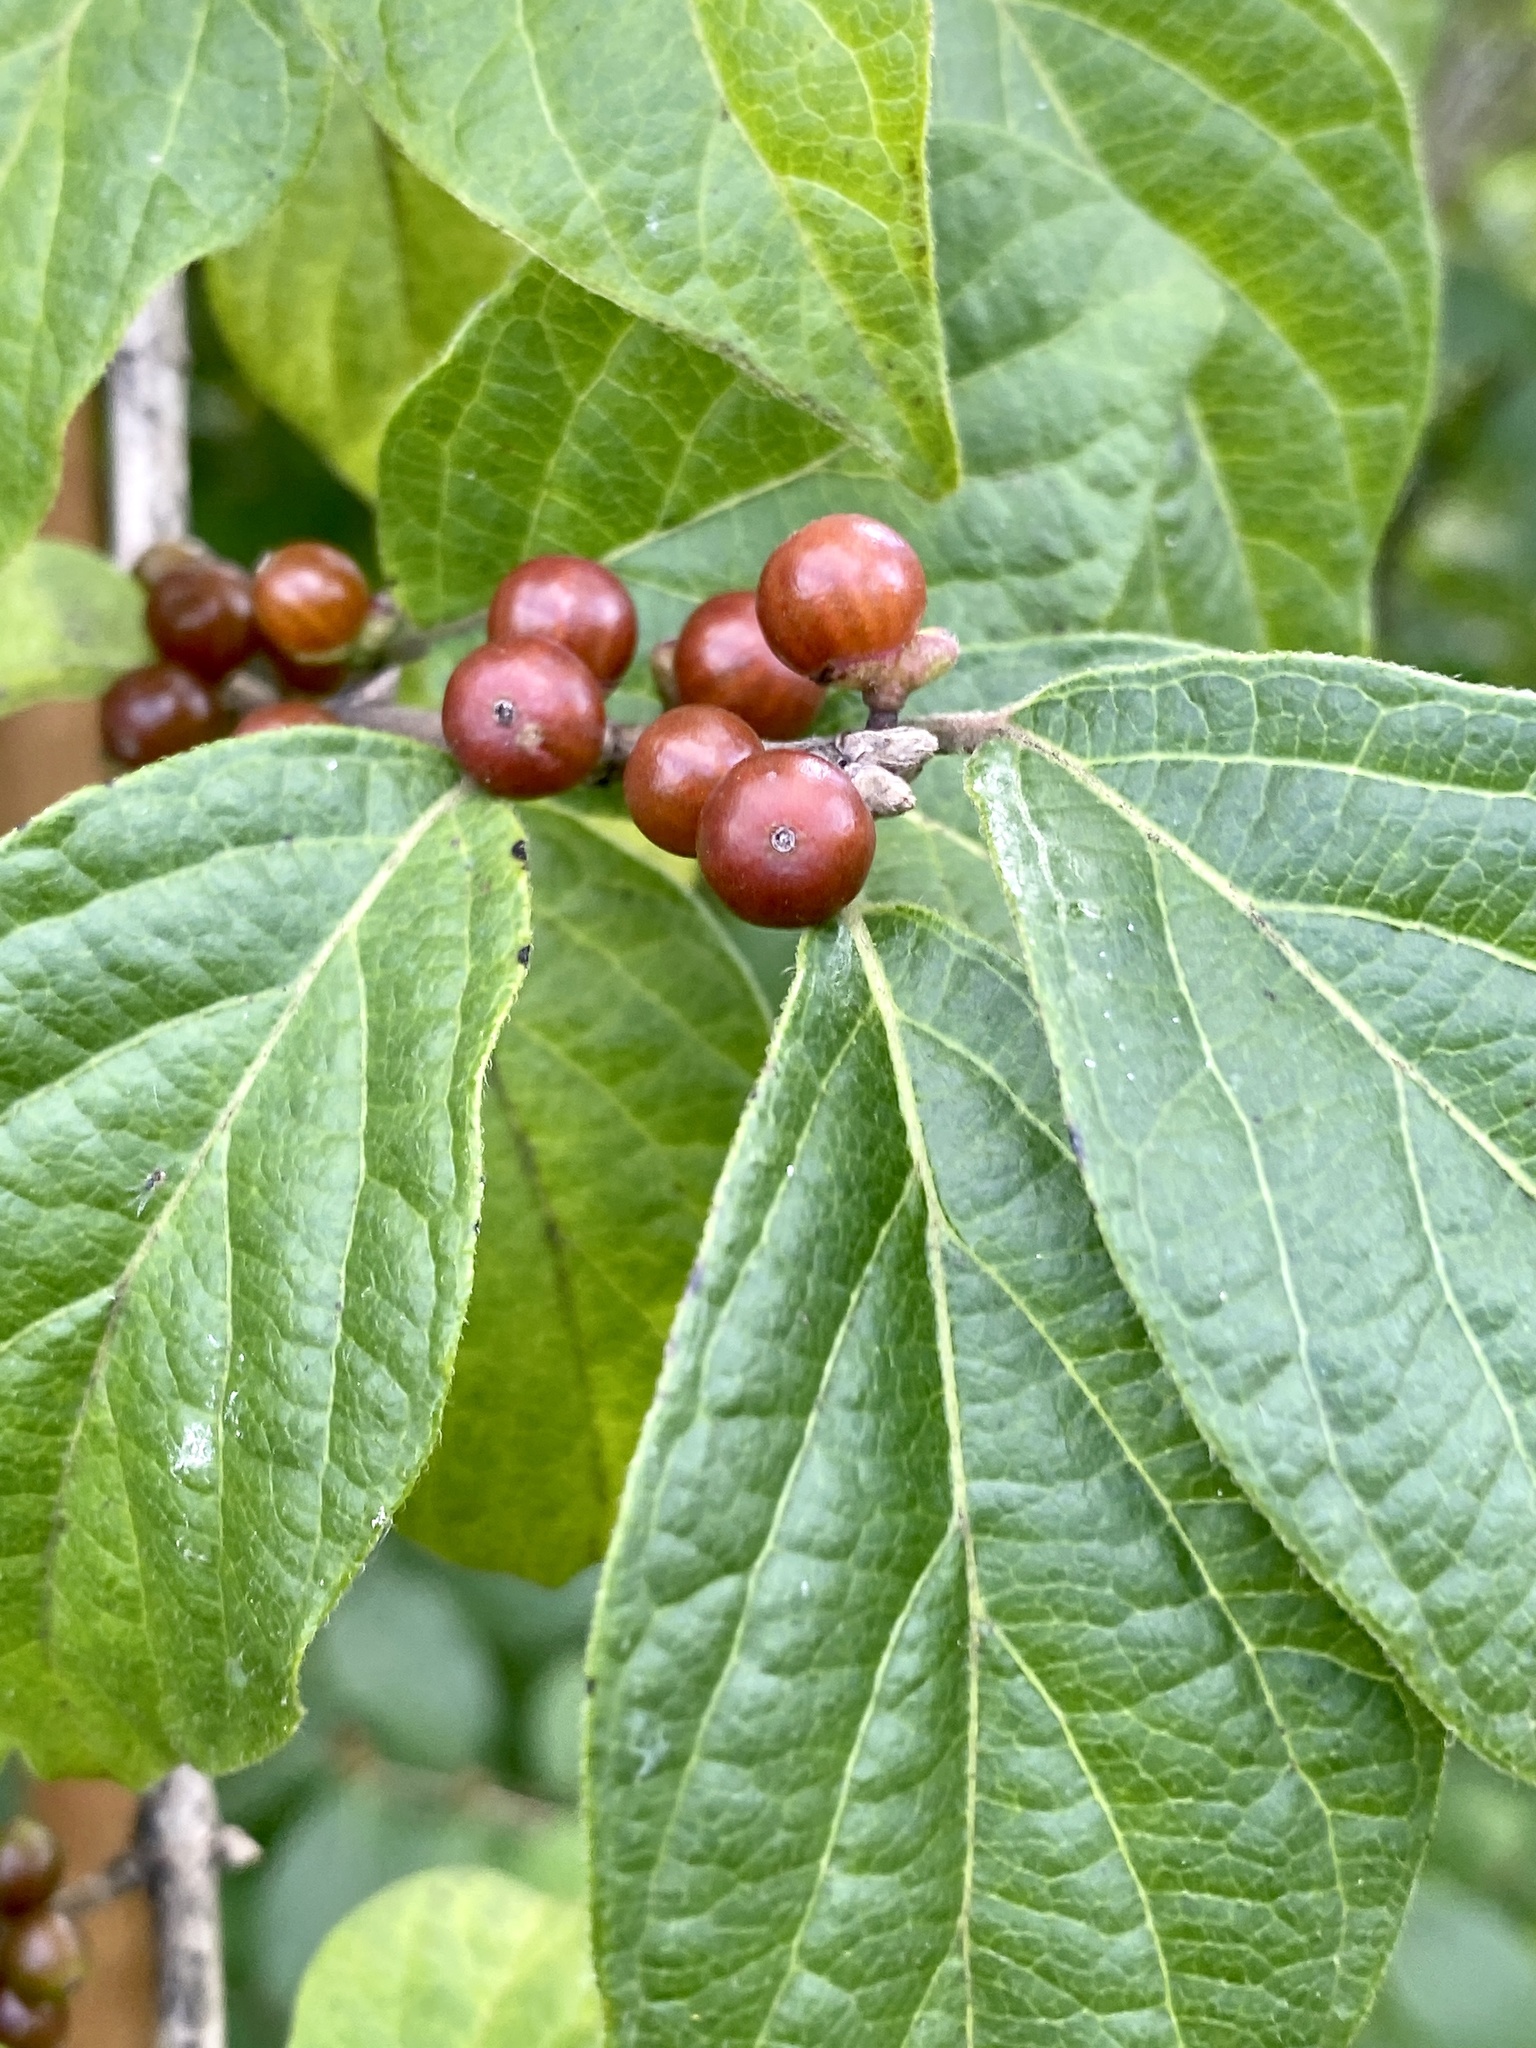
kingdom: Plantae
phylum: Tracheophyta
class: Magnoliopsida
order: Dipsacales
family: Caprifoliaceae
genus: Lonicera
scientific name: Lonicera maackii
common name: Amur honeysuckle
